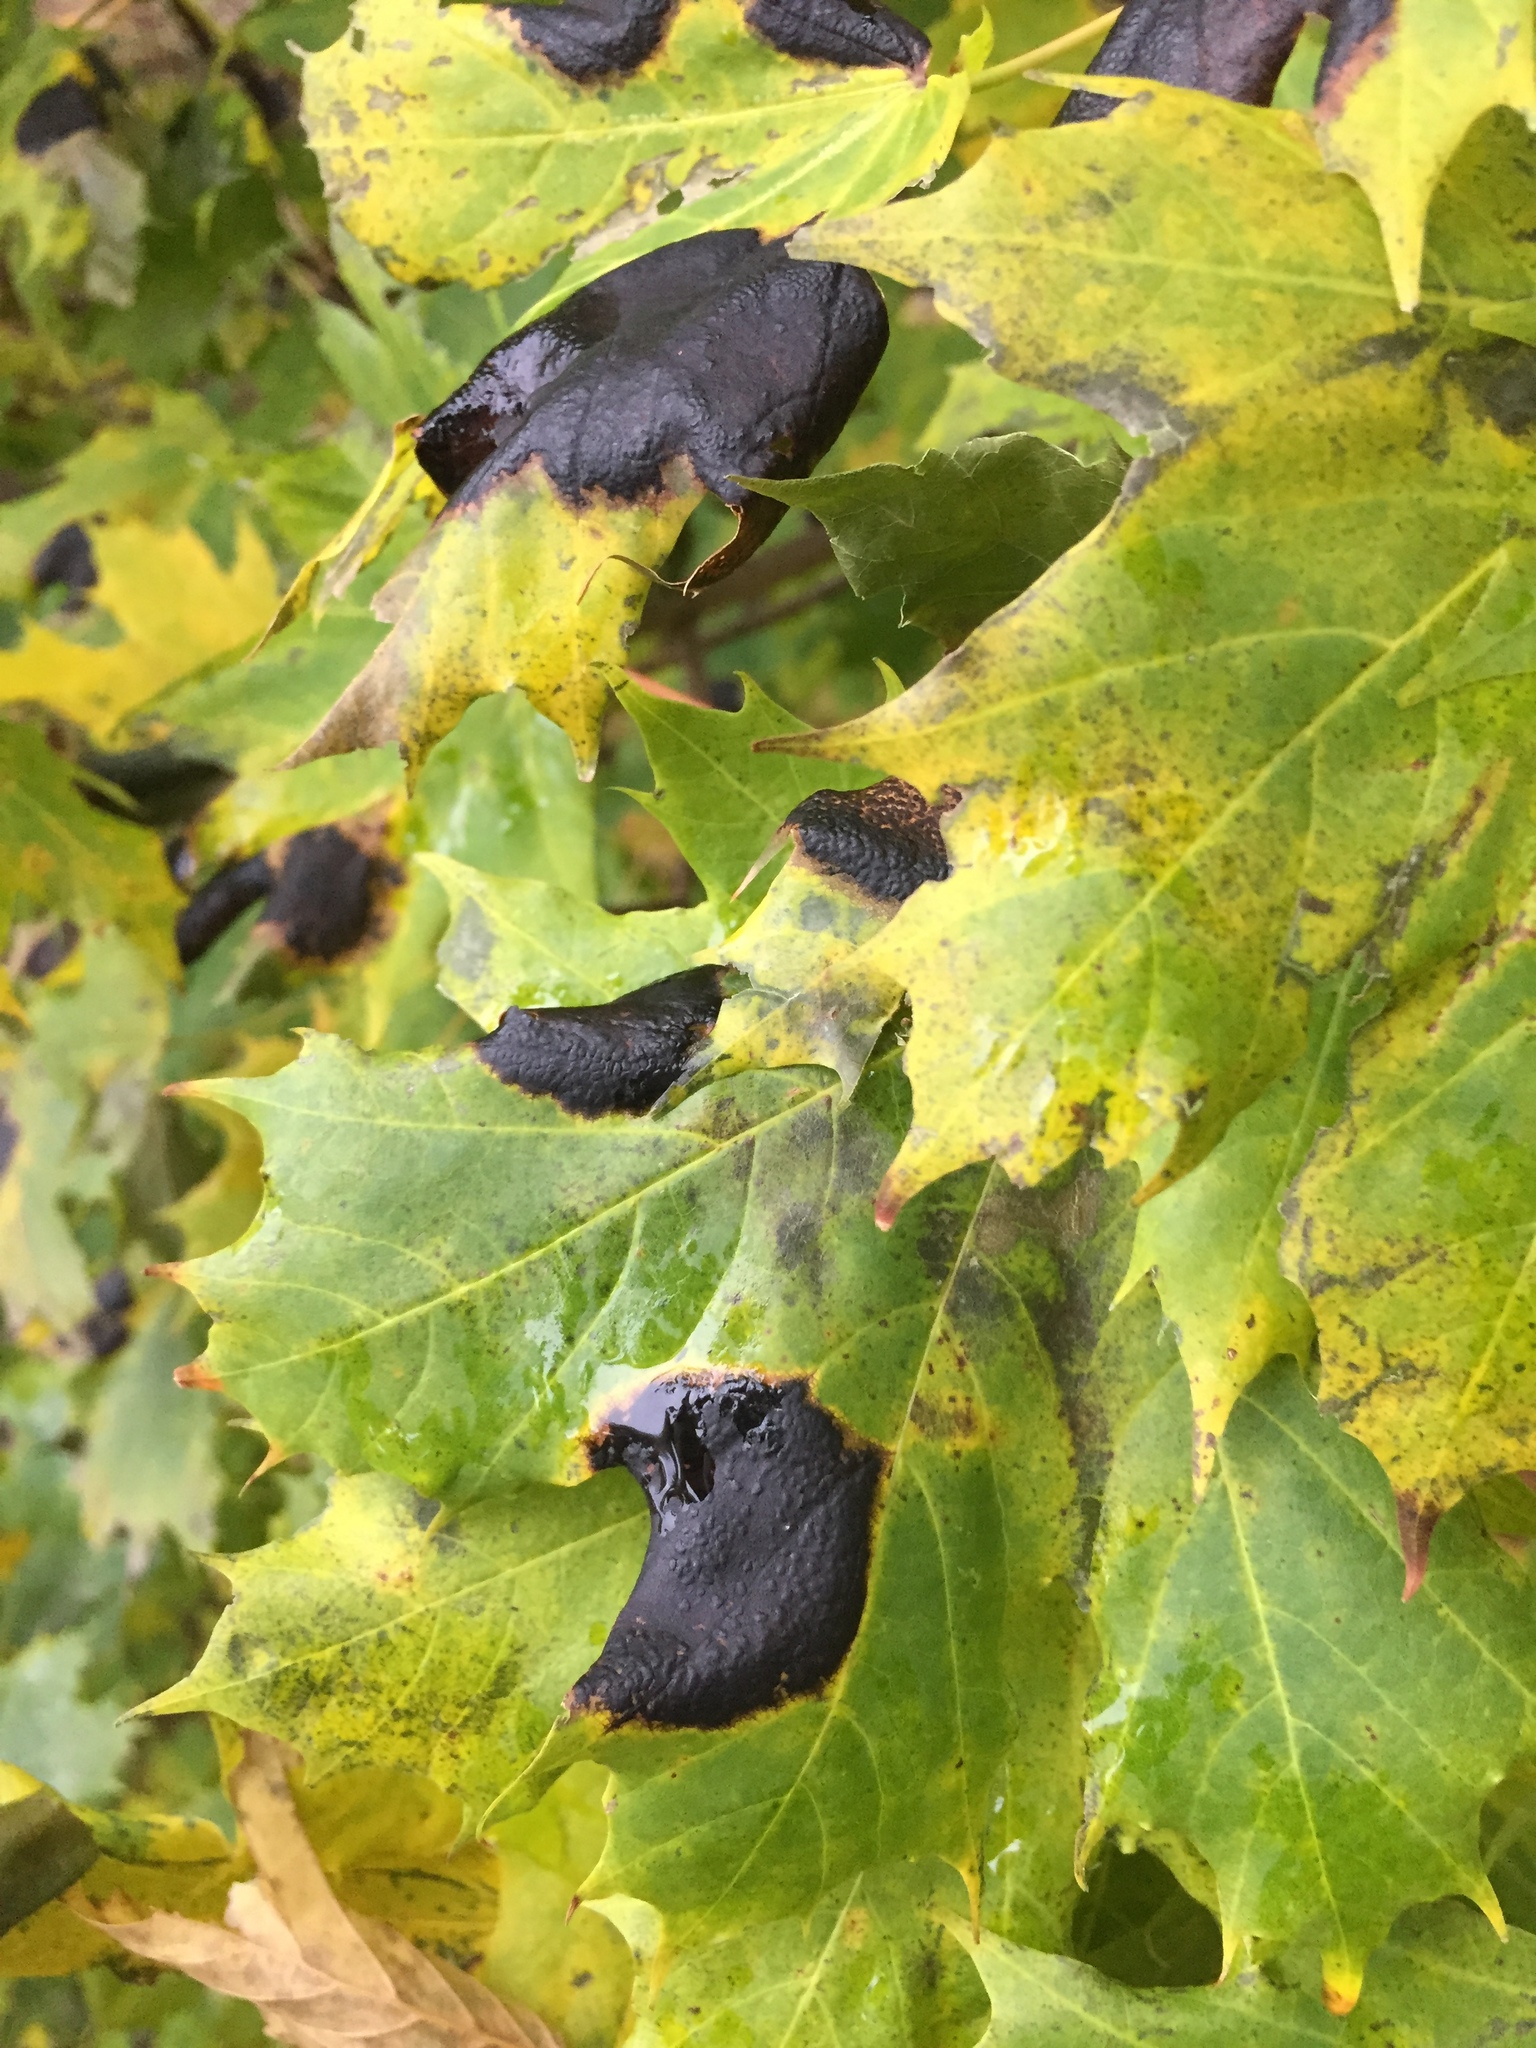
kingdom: Fungi
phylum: Ascomycota
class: Leotiomycetes
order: Rhytismatales
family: Rhytismataceae
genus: Rhytisma
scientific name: Rhytisma acerinum
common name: European tar spot
